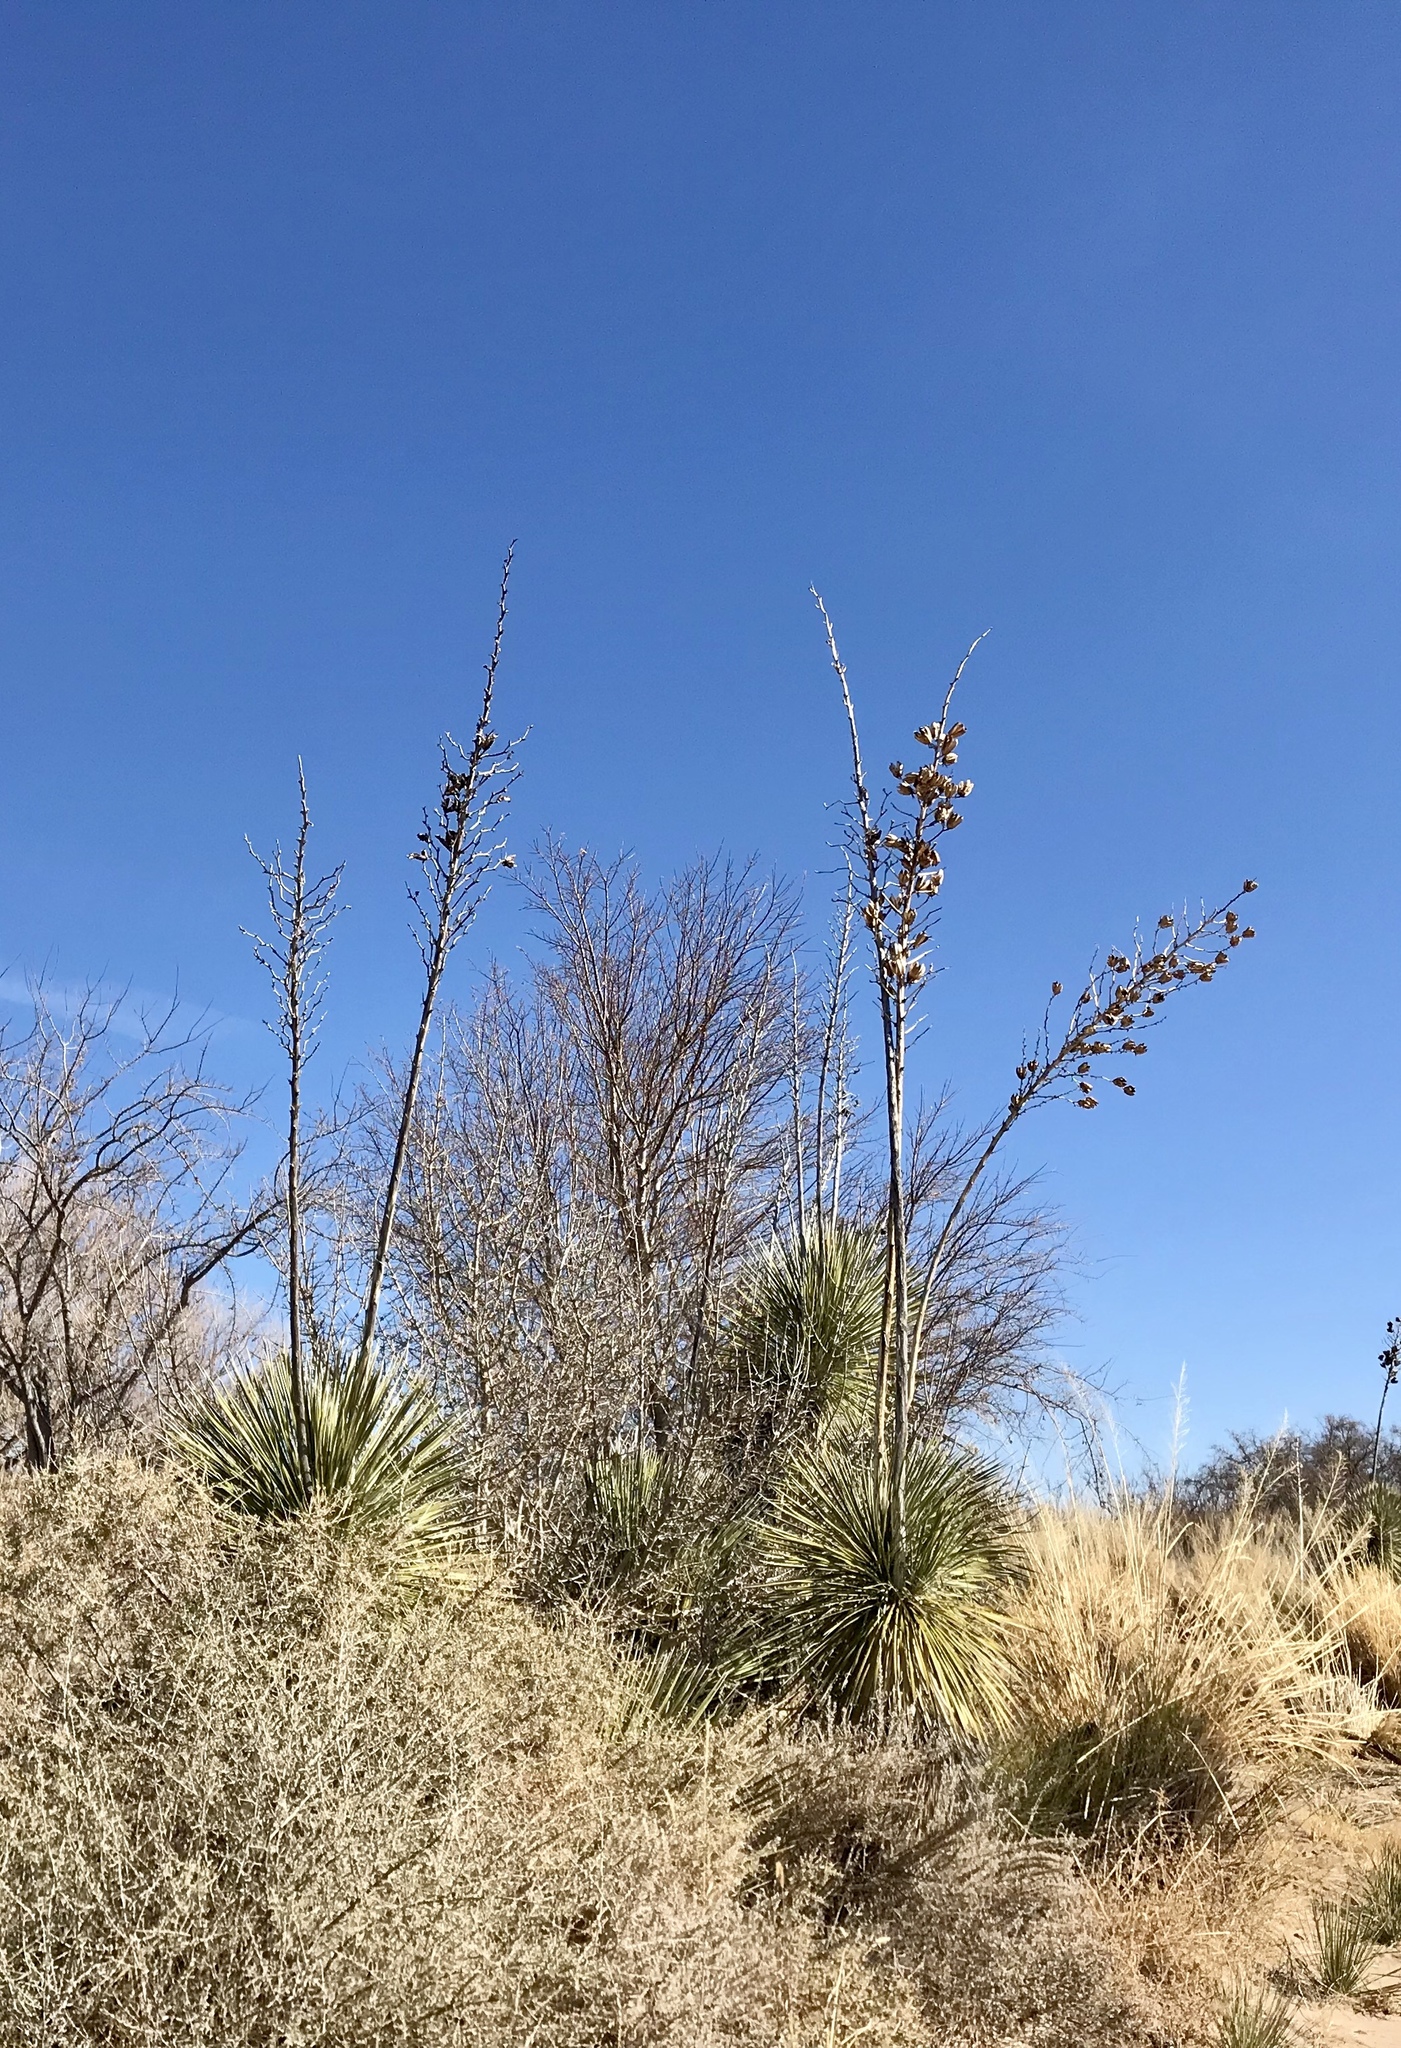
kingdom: Plantae
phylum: Tracheophyta
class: Liliopsida
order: Asparagales
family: Asparagaceae
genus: Yucca
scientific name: Yucca elata
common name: Palmella
